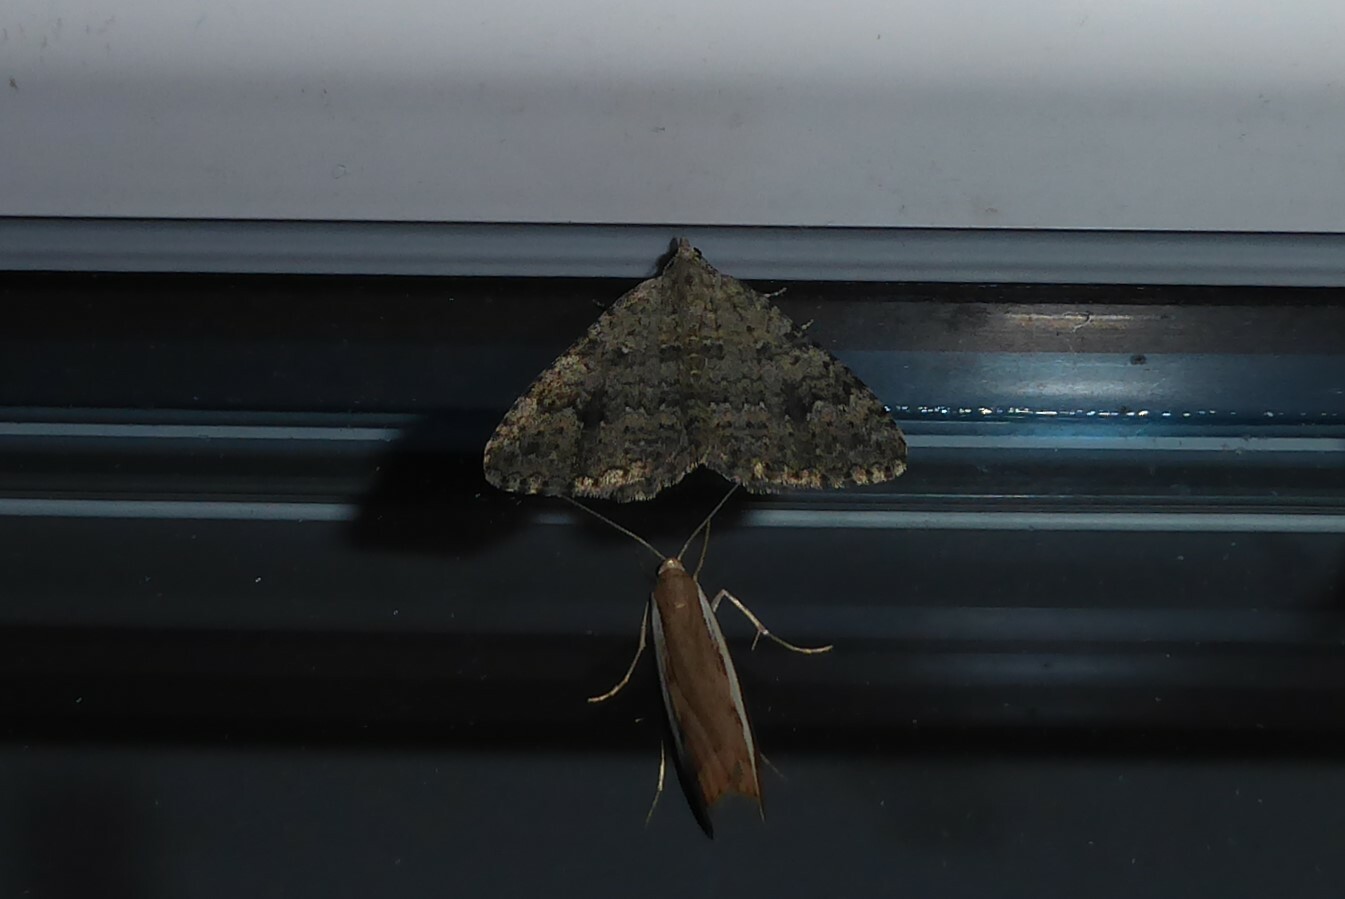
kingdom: Animalia
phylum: Arthropoda
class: Insecta
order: Lepidoptera
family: Geometridae
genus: Helastia
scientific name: Helastia corcularia
